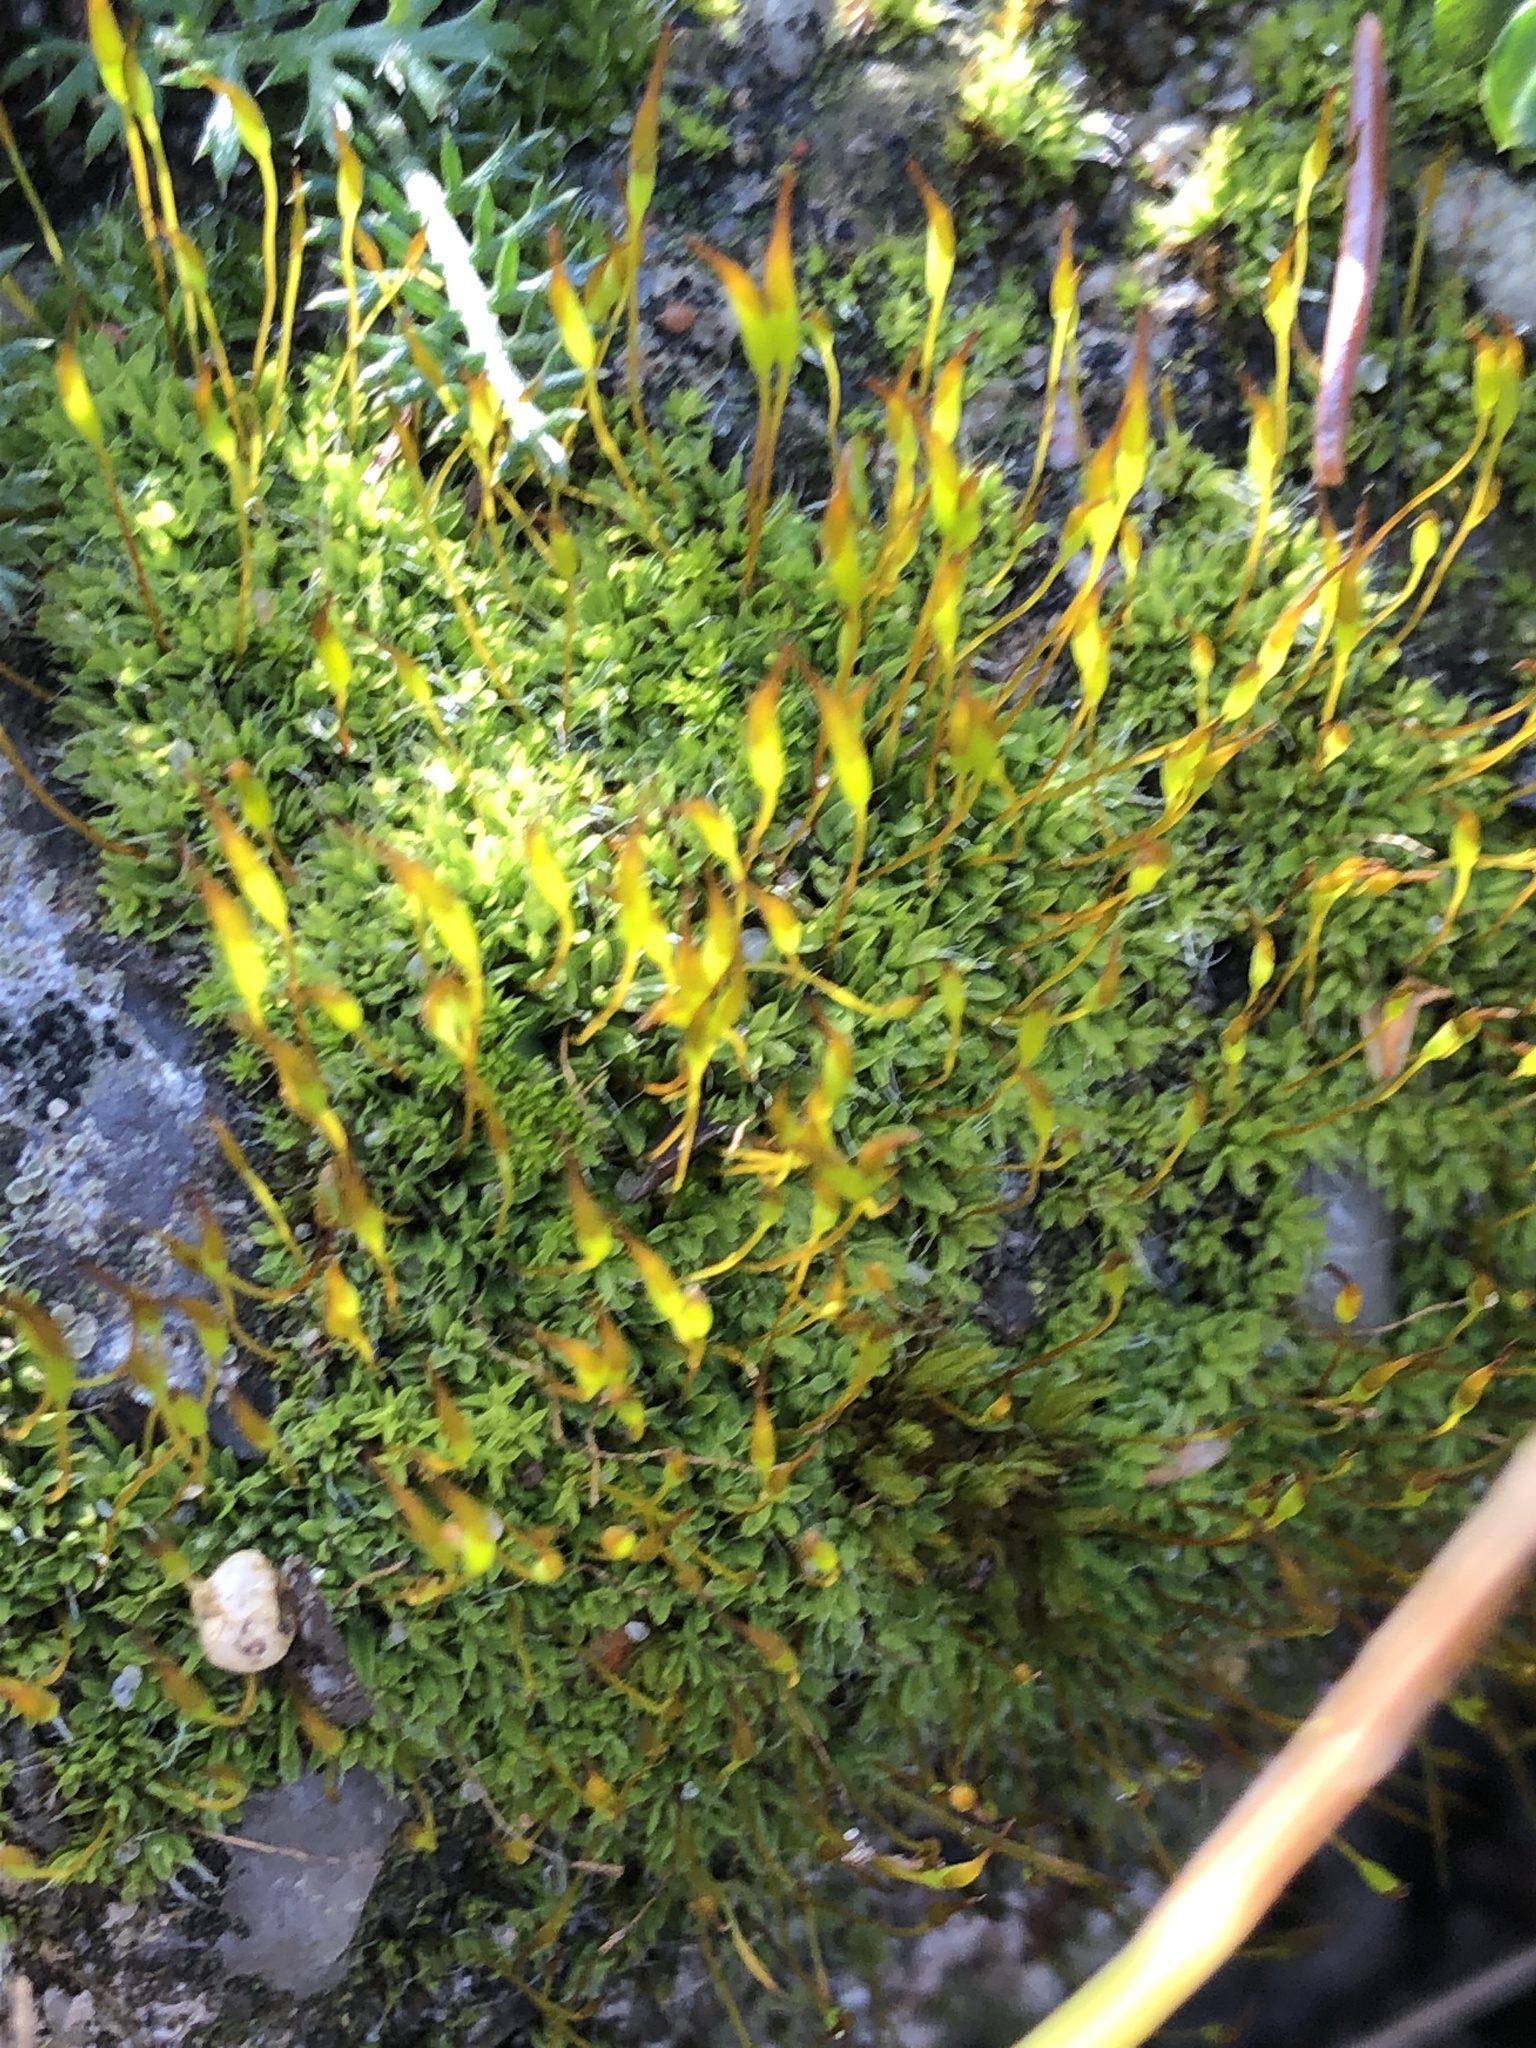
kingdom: Plantae
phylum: Bryophyta
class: Bryopsida
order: Pottiales
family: Pottiaceae
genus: Tortula
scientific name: Tortula muralis
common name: Wall screw-moss
